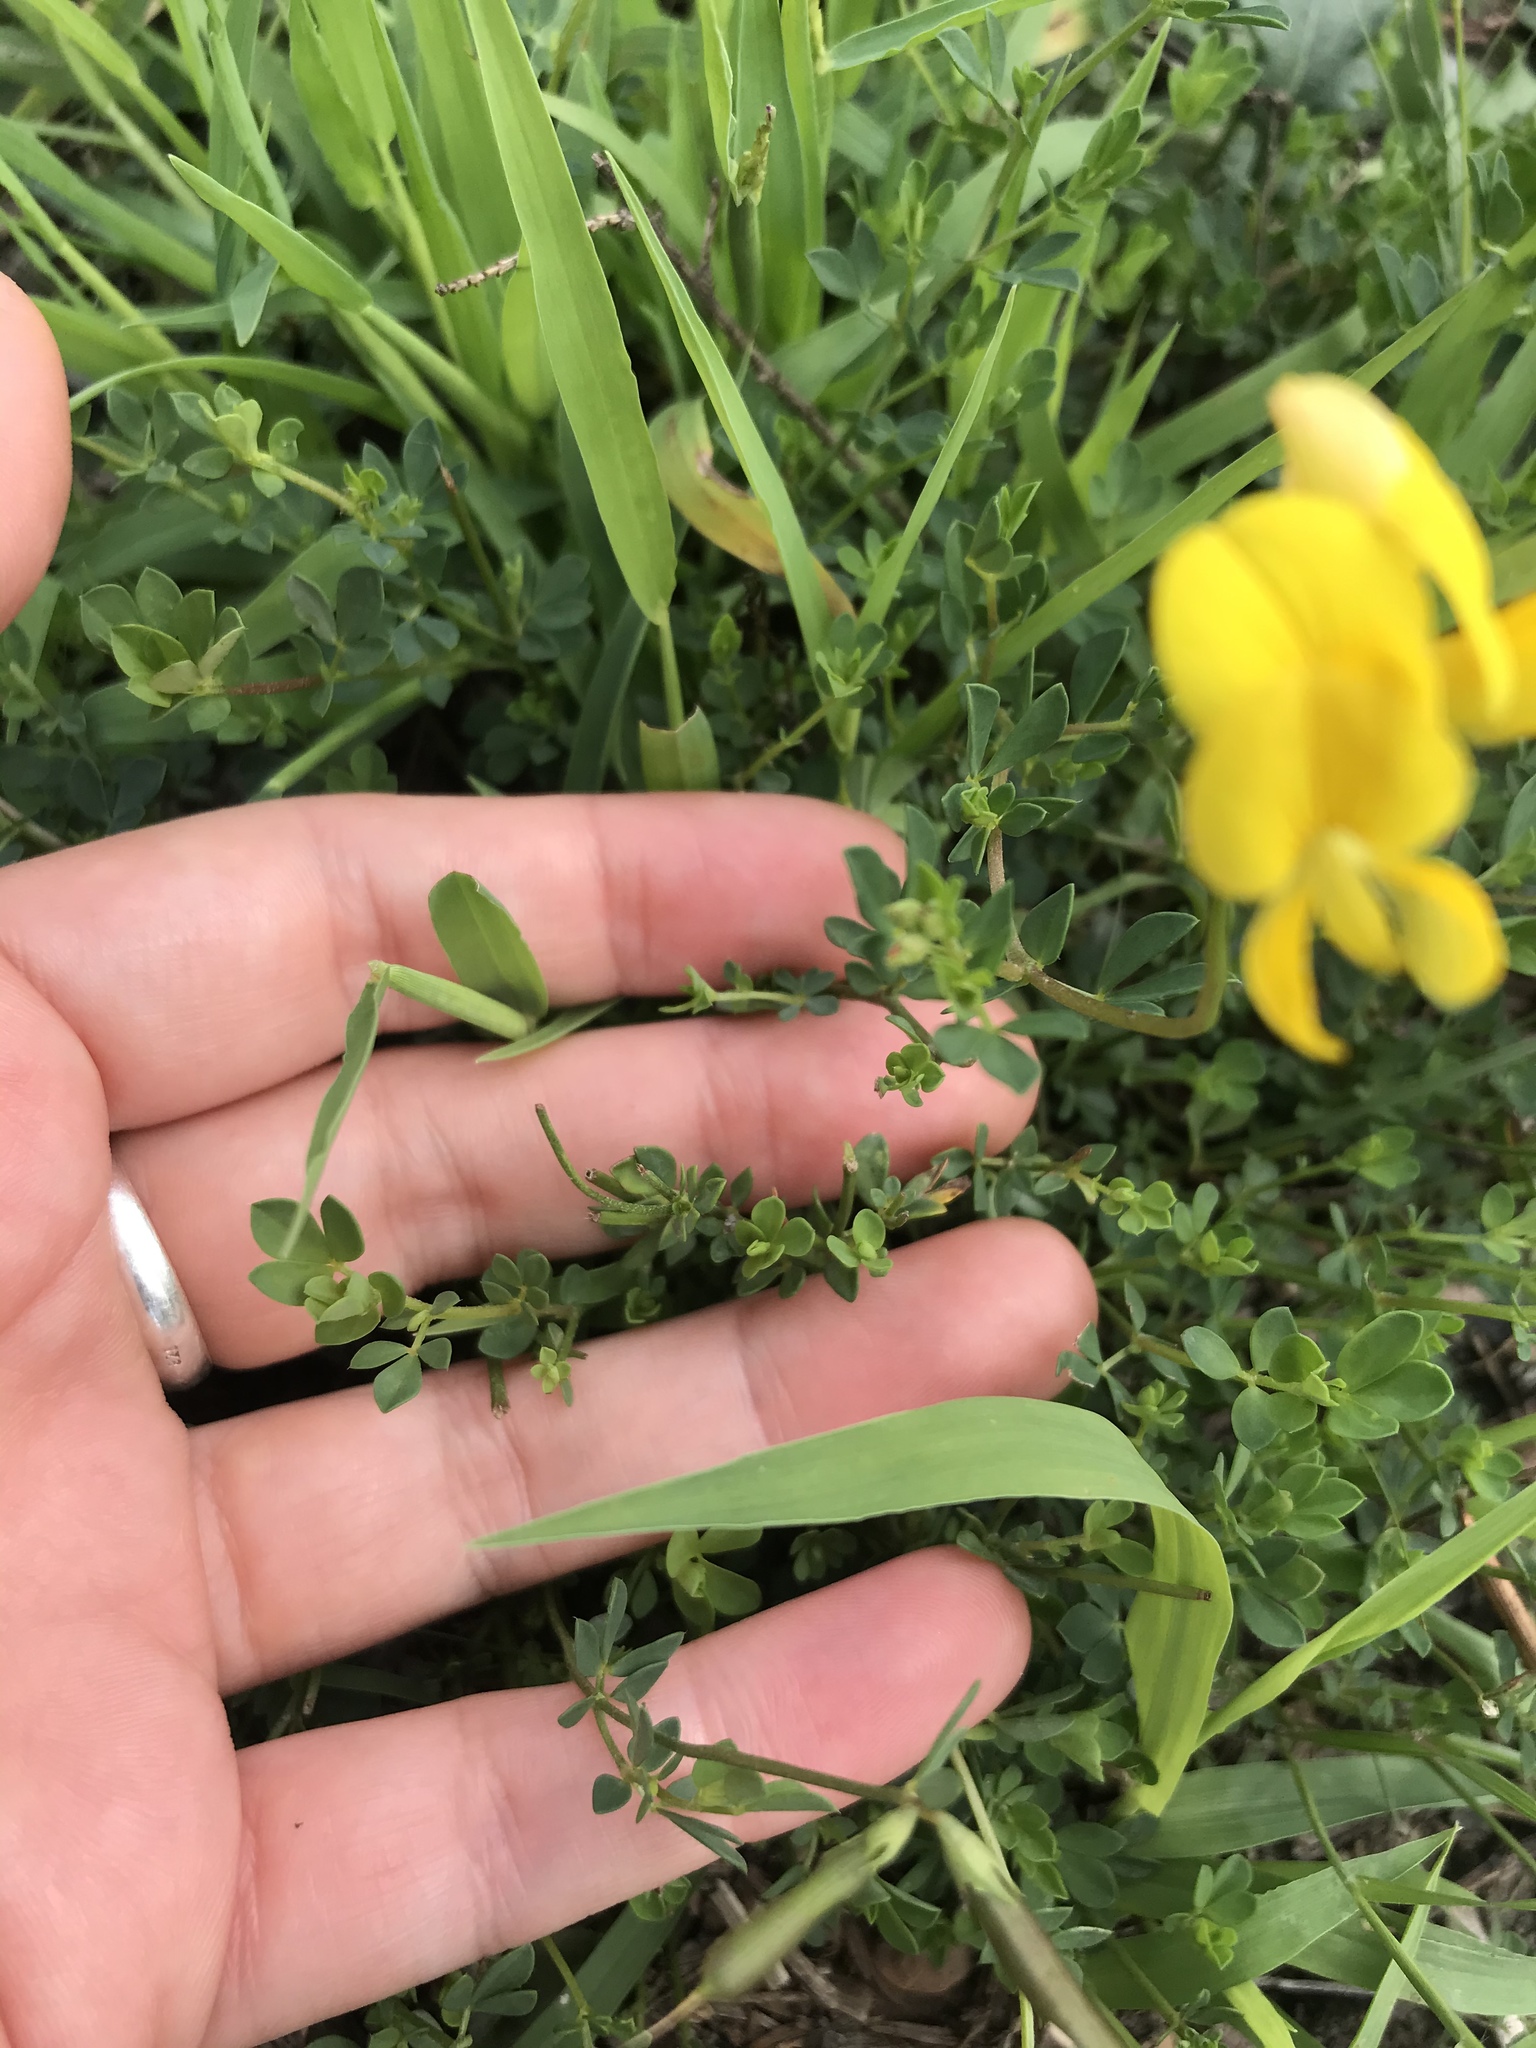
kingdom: Plantae
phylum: Tracheophyta
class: Magnoliopsida
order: Fabales
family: Fabaceae
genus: Lotus
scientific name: Lotus corniculatus
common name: Common bird's-foot-trefoil
